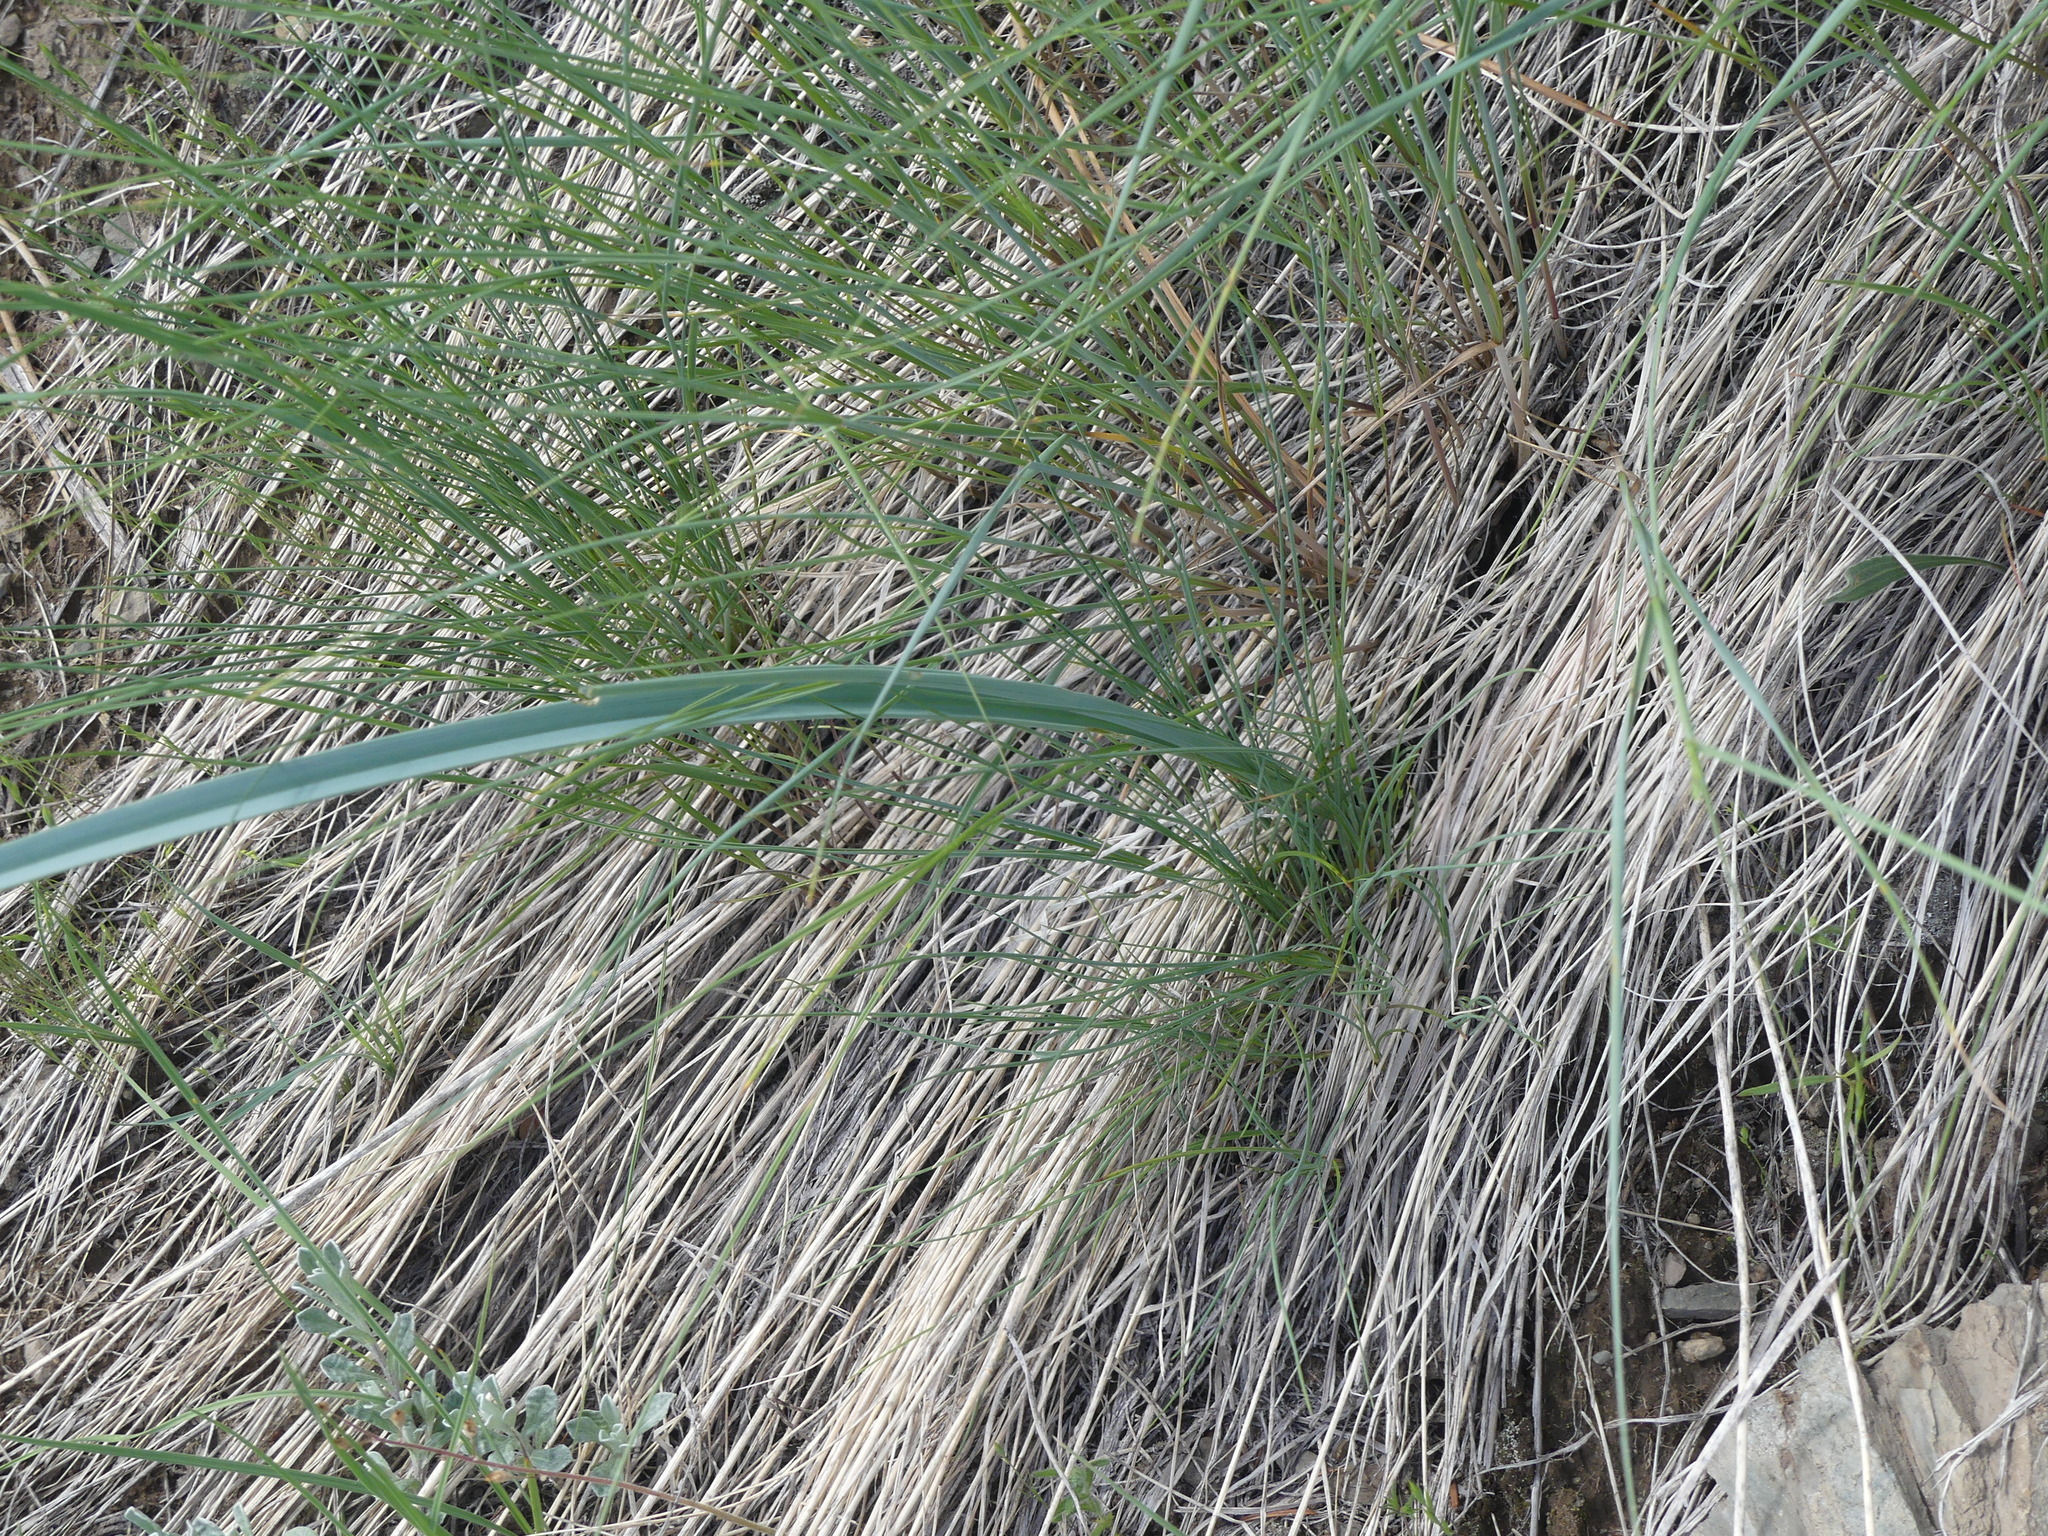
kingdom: Plantae
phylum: Tracheophyta
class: Liliopsida
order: Liliales
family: Liliaceae
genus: Calochortus
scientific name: Calochortus macrocarpus
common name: Green-band mariposa lily
